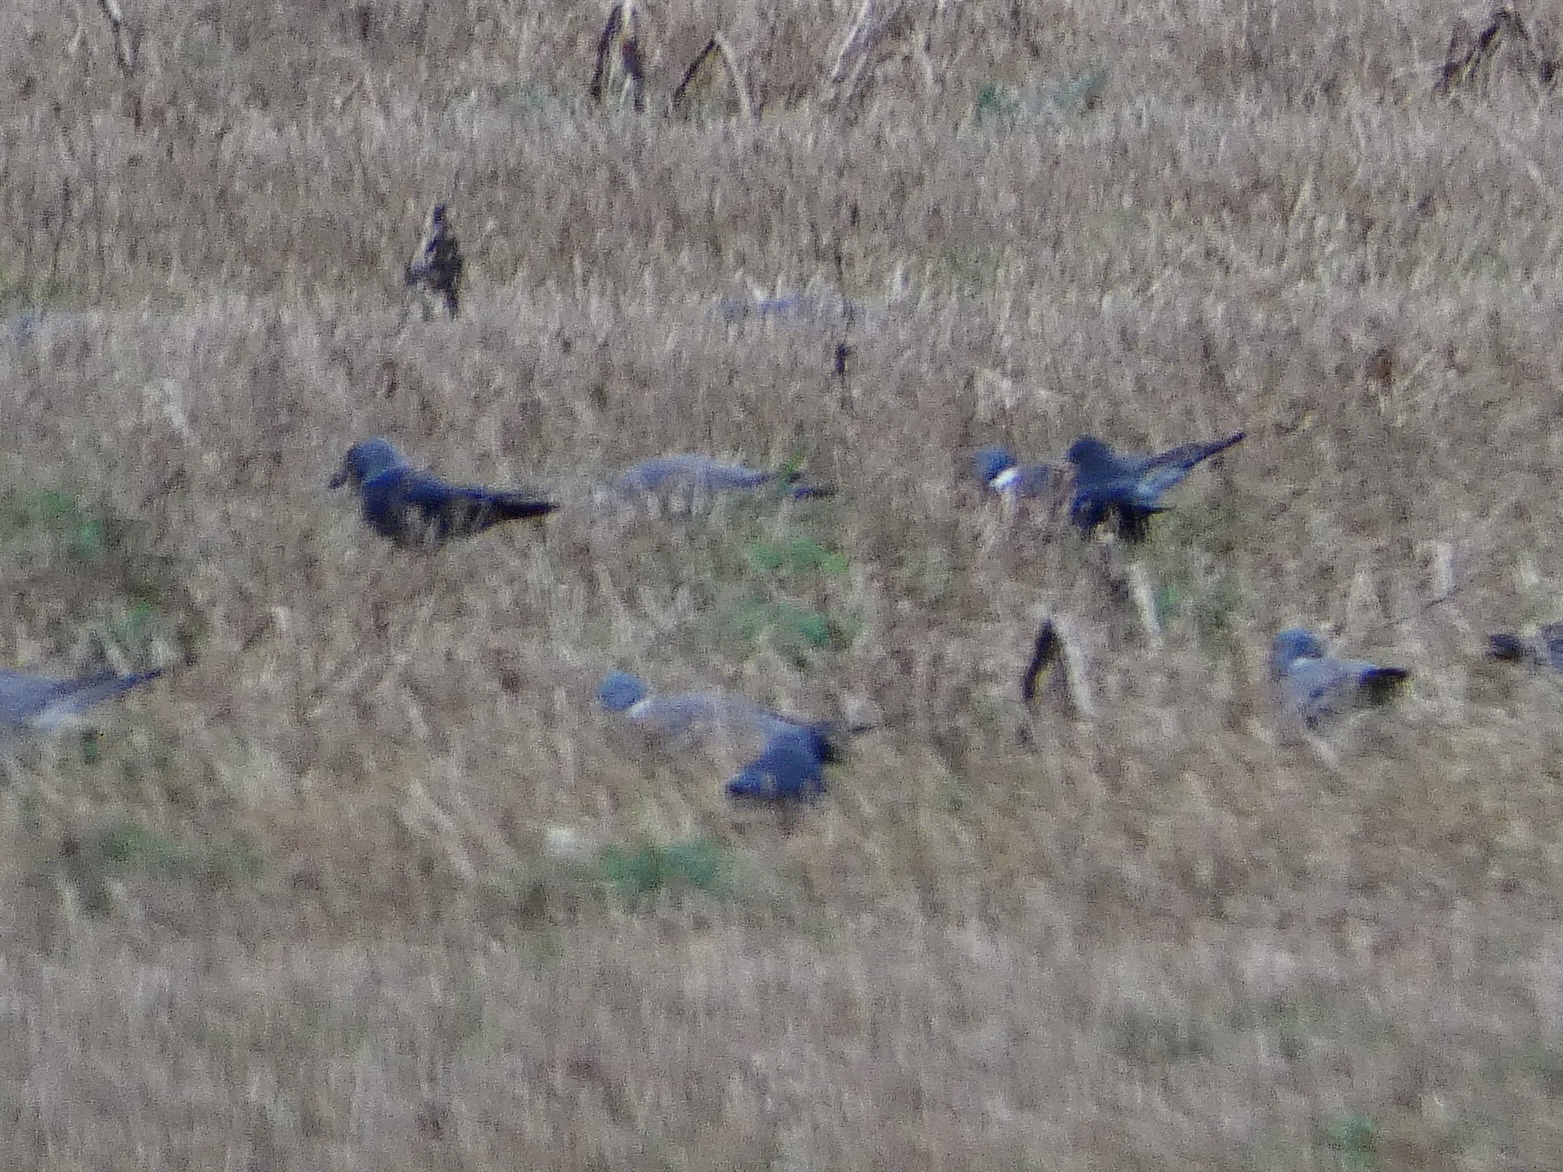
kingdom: Animalia
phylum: Chordata
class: Aves
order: Columbiformes
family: Columbidae
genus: Columba
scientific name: Columba palumbus
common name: Common wood pigeon
